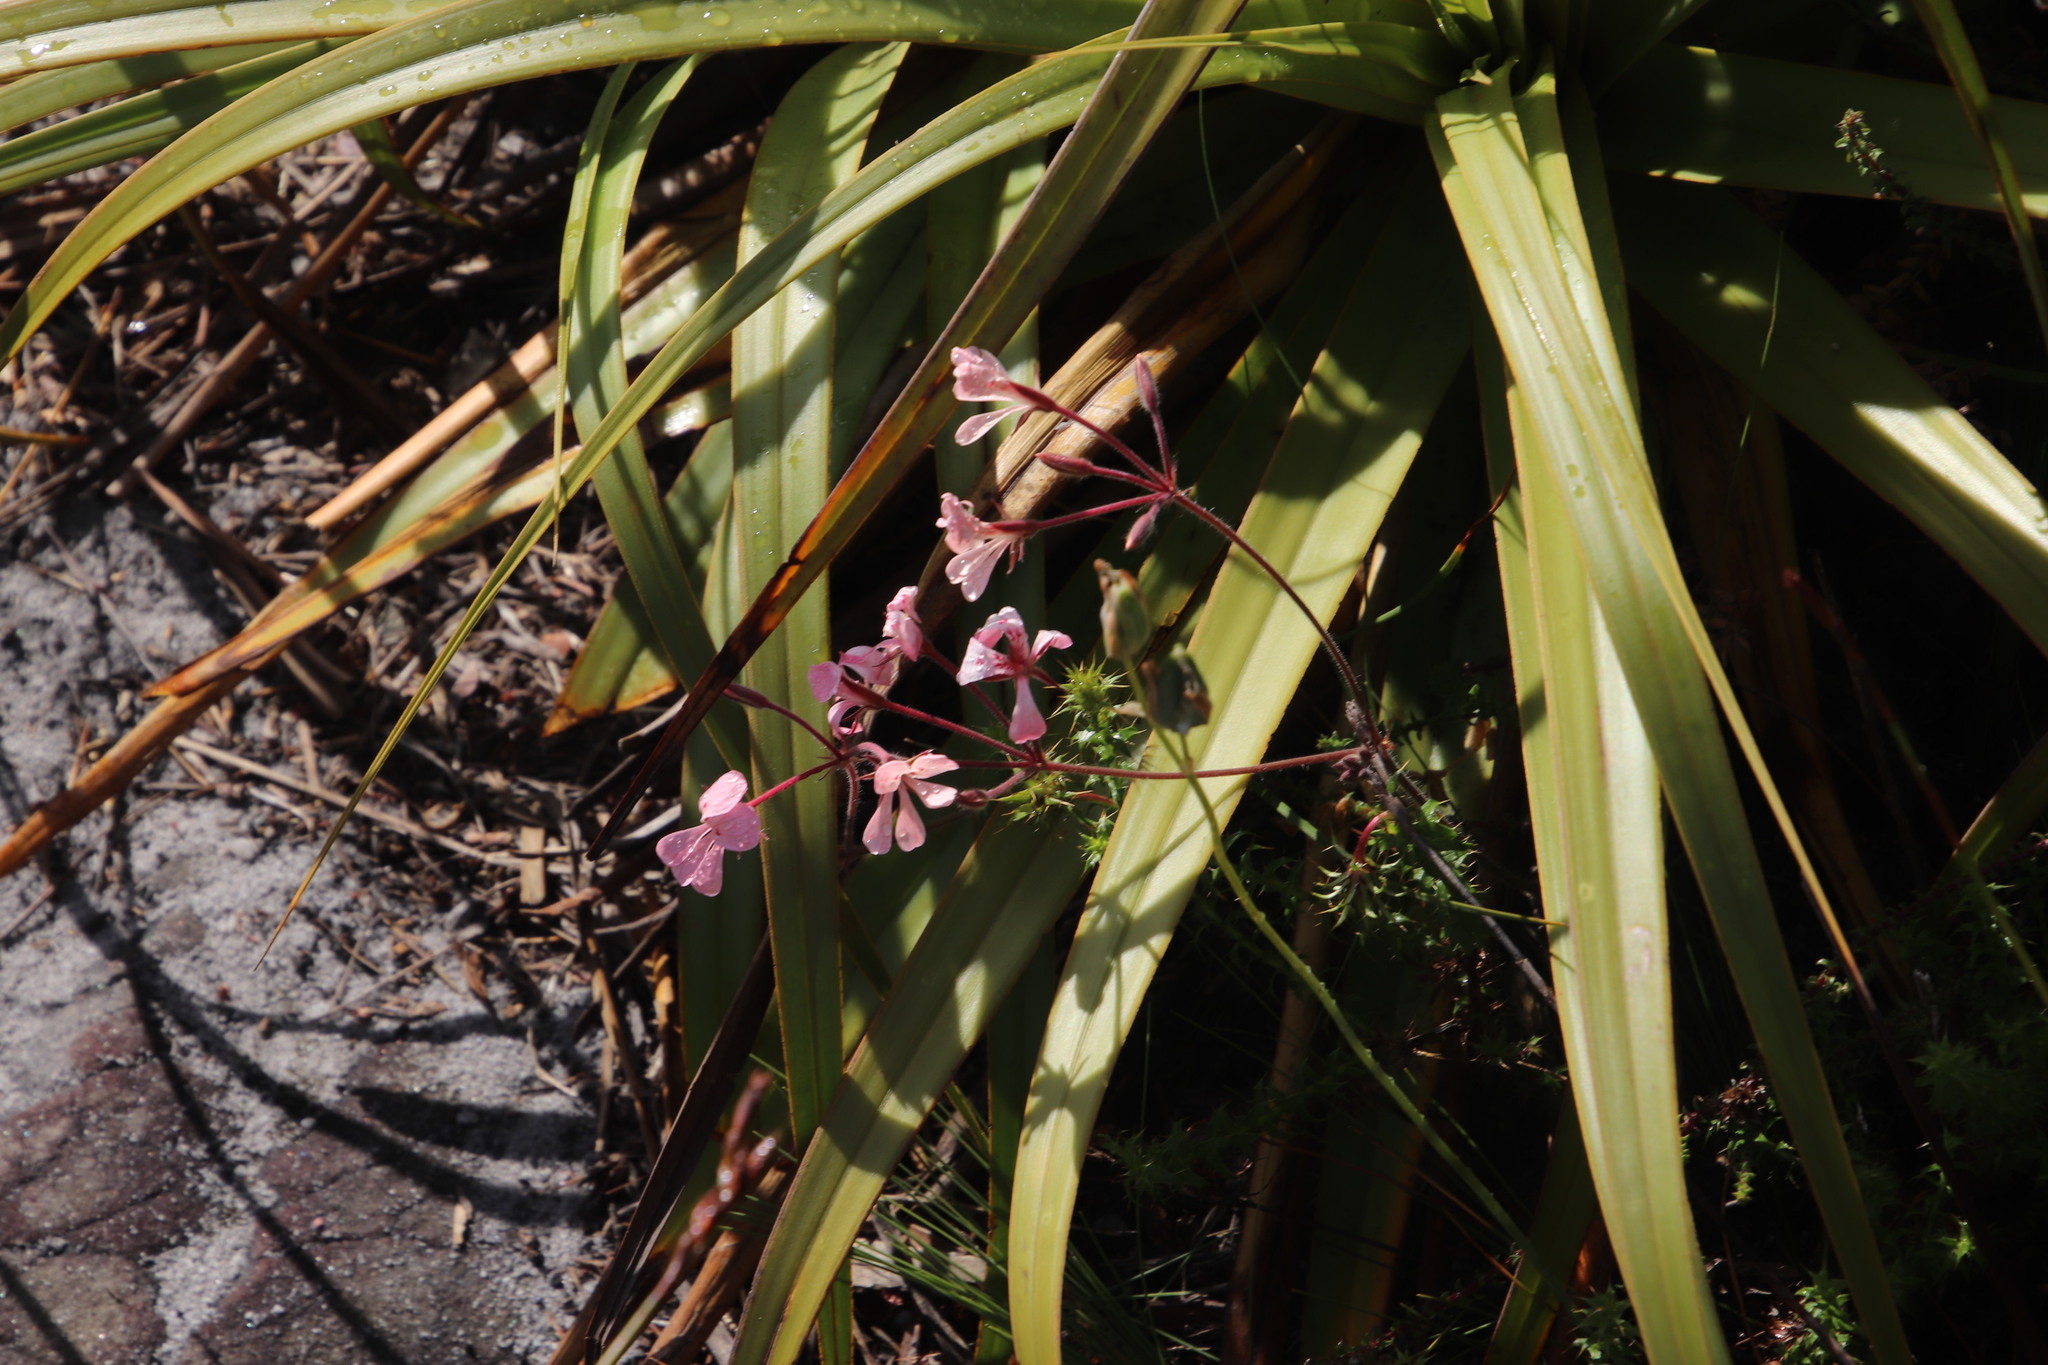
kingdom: Plantae
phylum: Tracheophyta
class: Magnoliopsida
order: Geraniales
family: Geraniaceae
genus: Pelargonium
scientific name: Pelargonium pinnatum
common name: Pinnated pelargonium
